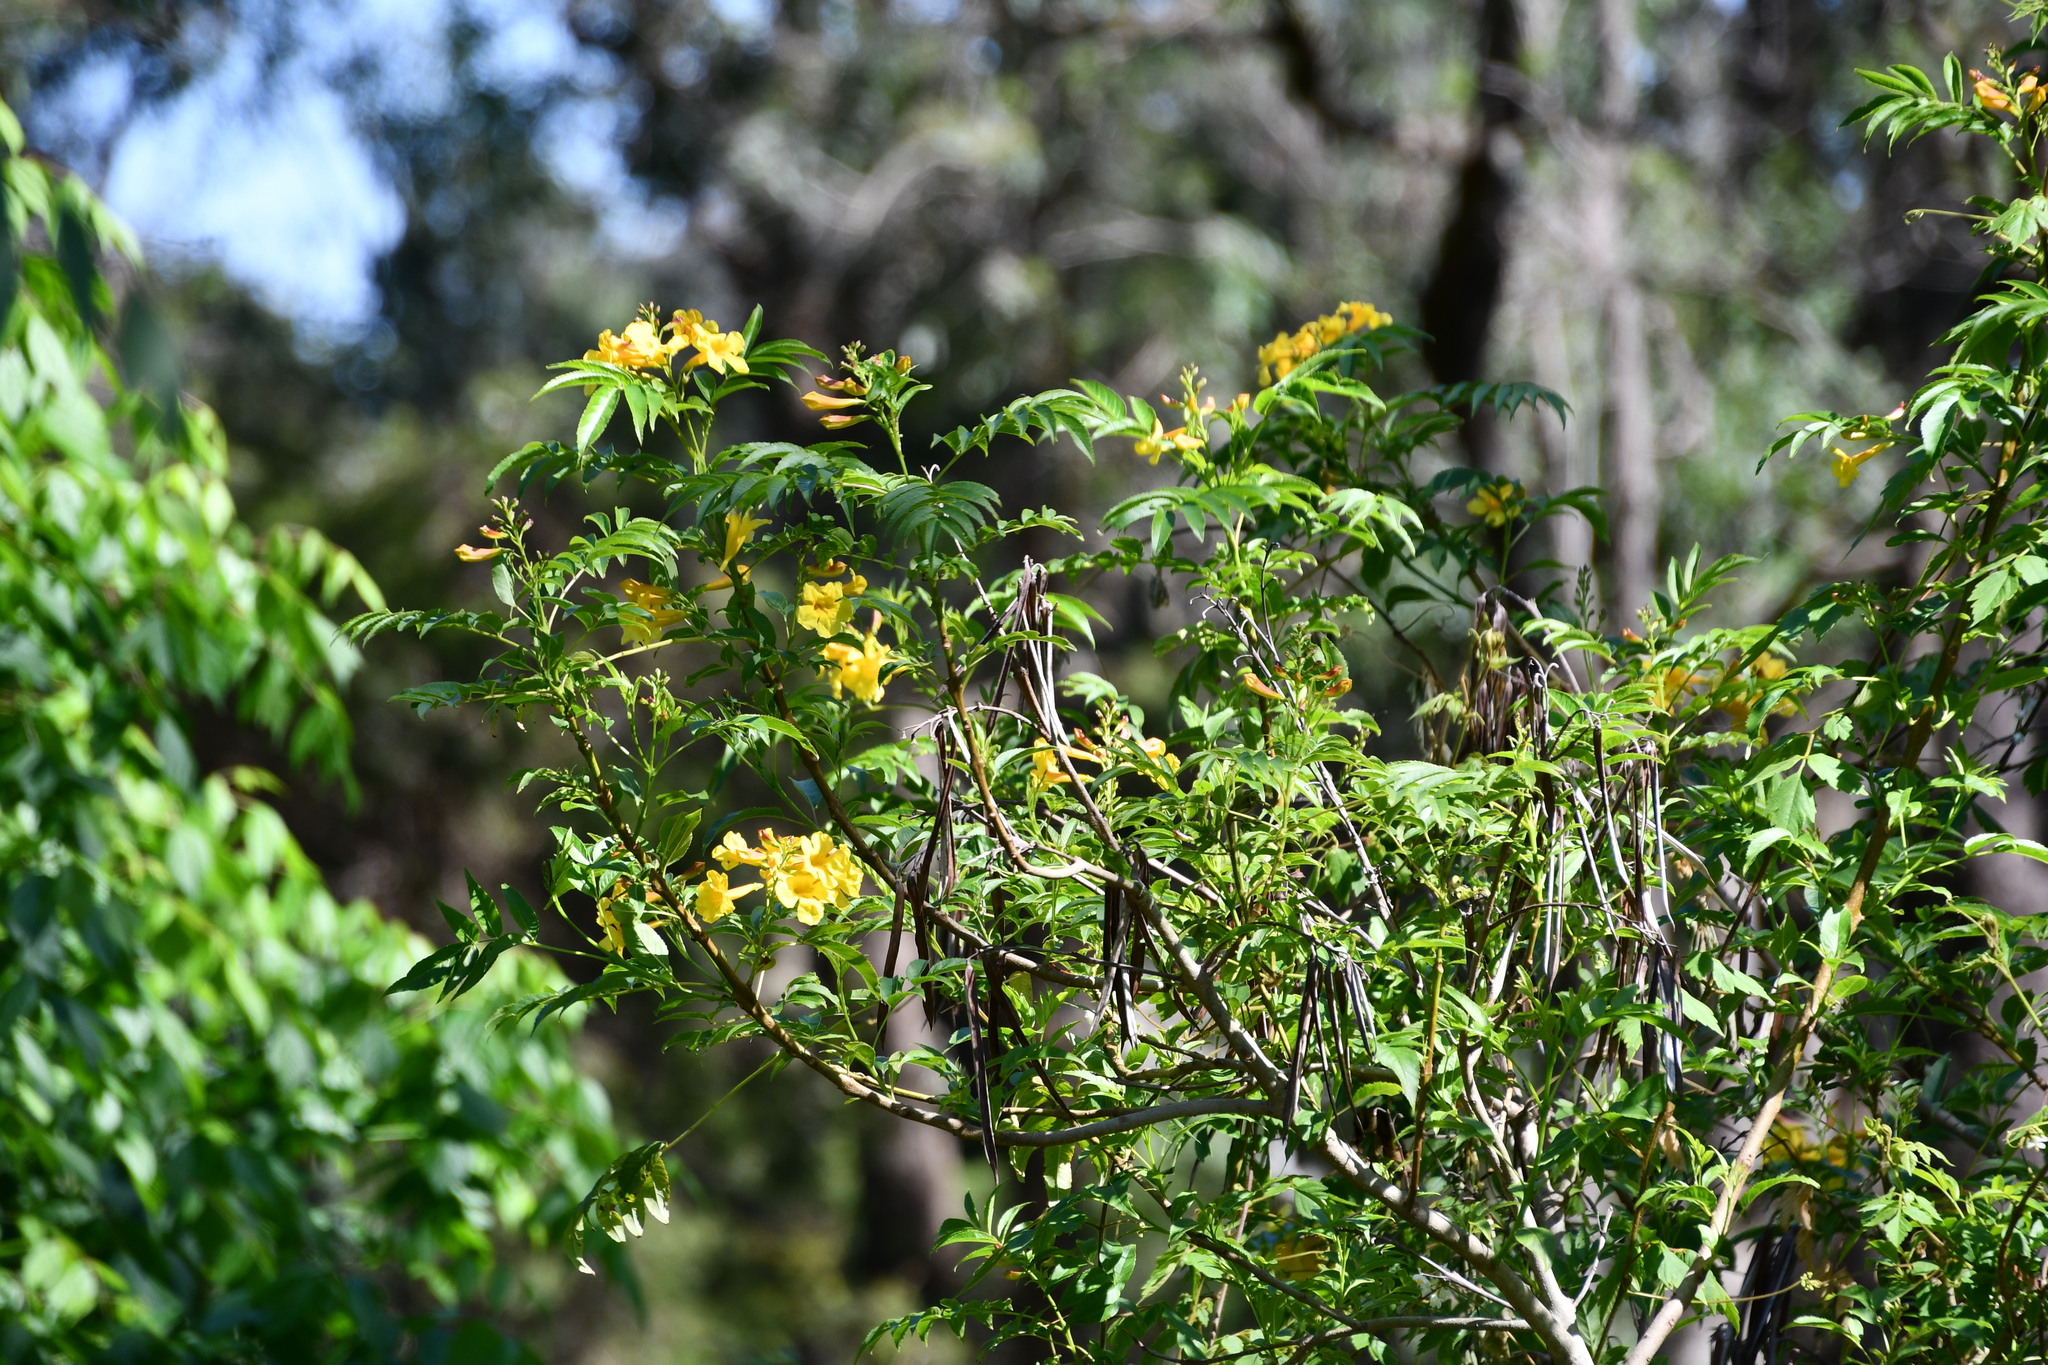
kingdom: Plantae
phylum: Tracheophyta
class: Magnoliopsida
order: Lamiales
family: Bignoniaceae
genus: Tecoma
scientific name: Tecoma stans
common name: Yellow trumpetbush
